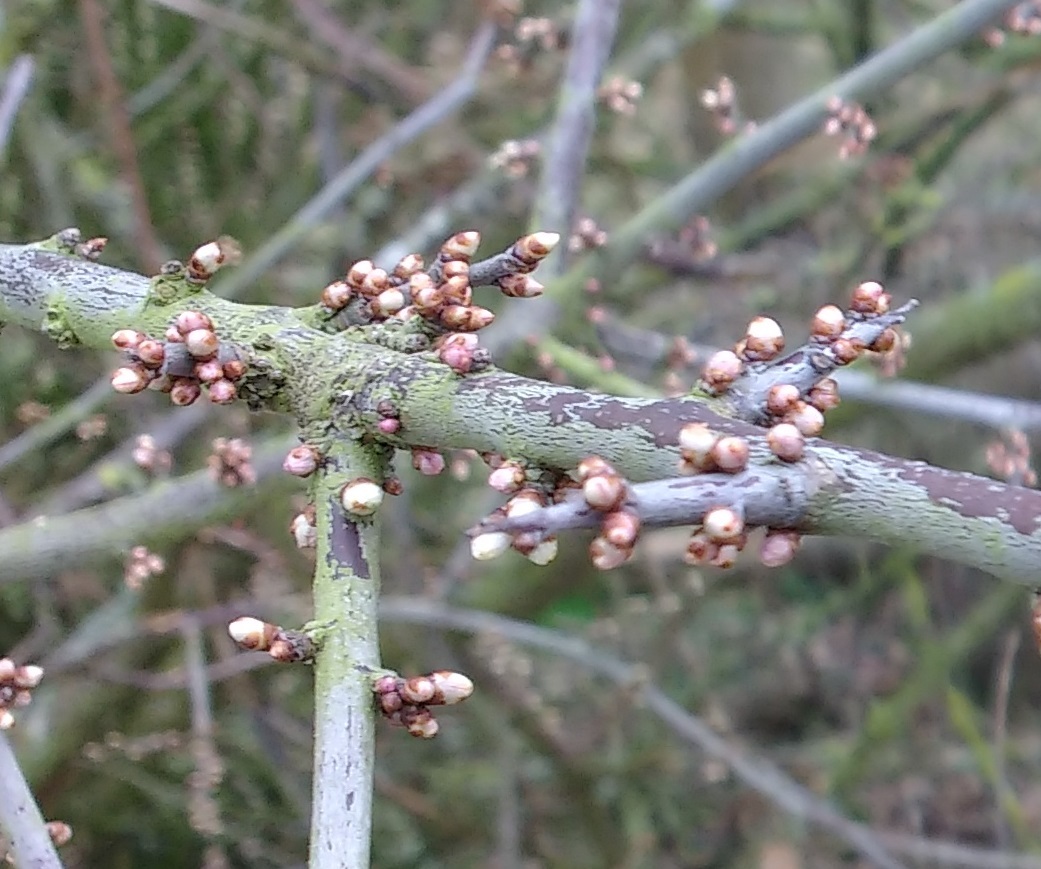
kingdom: Plantae
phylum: Tracheophyta
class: Magnoliopsida
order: Rosales
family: Rosaceae
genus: Prunus
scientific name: Prunus spinosa
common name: Blackthorn
